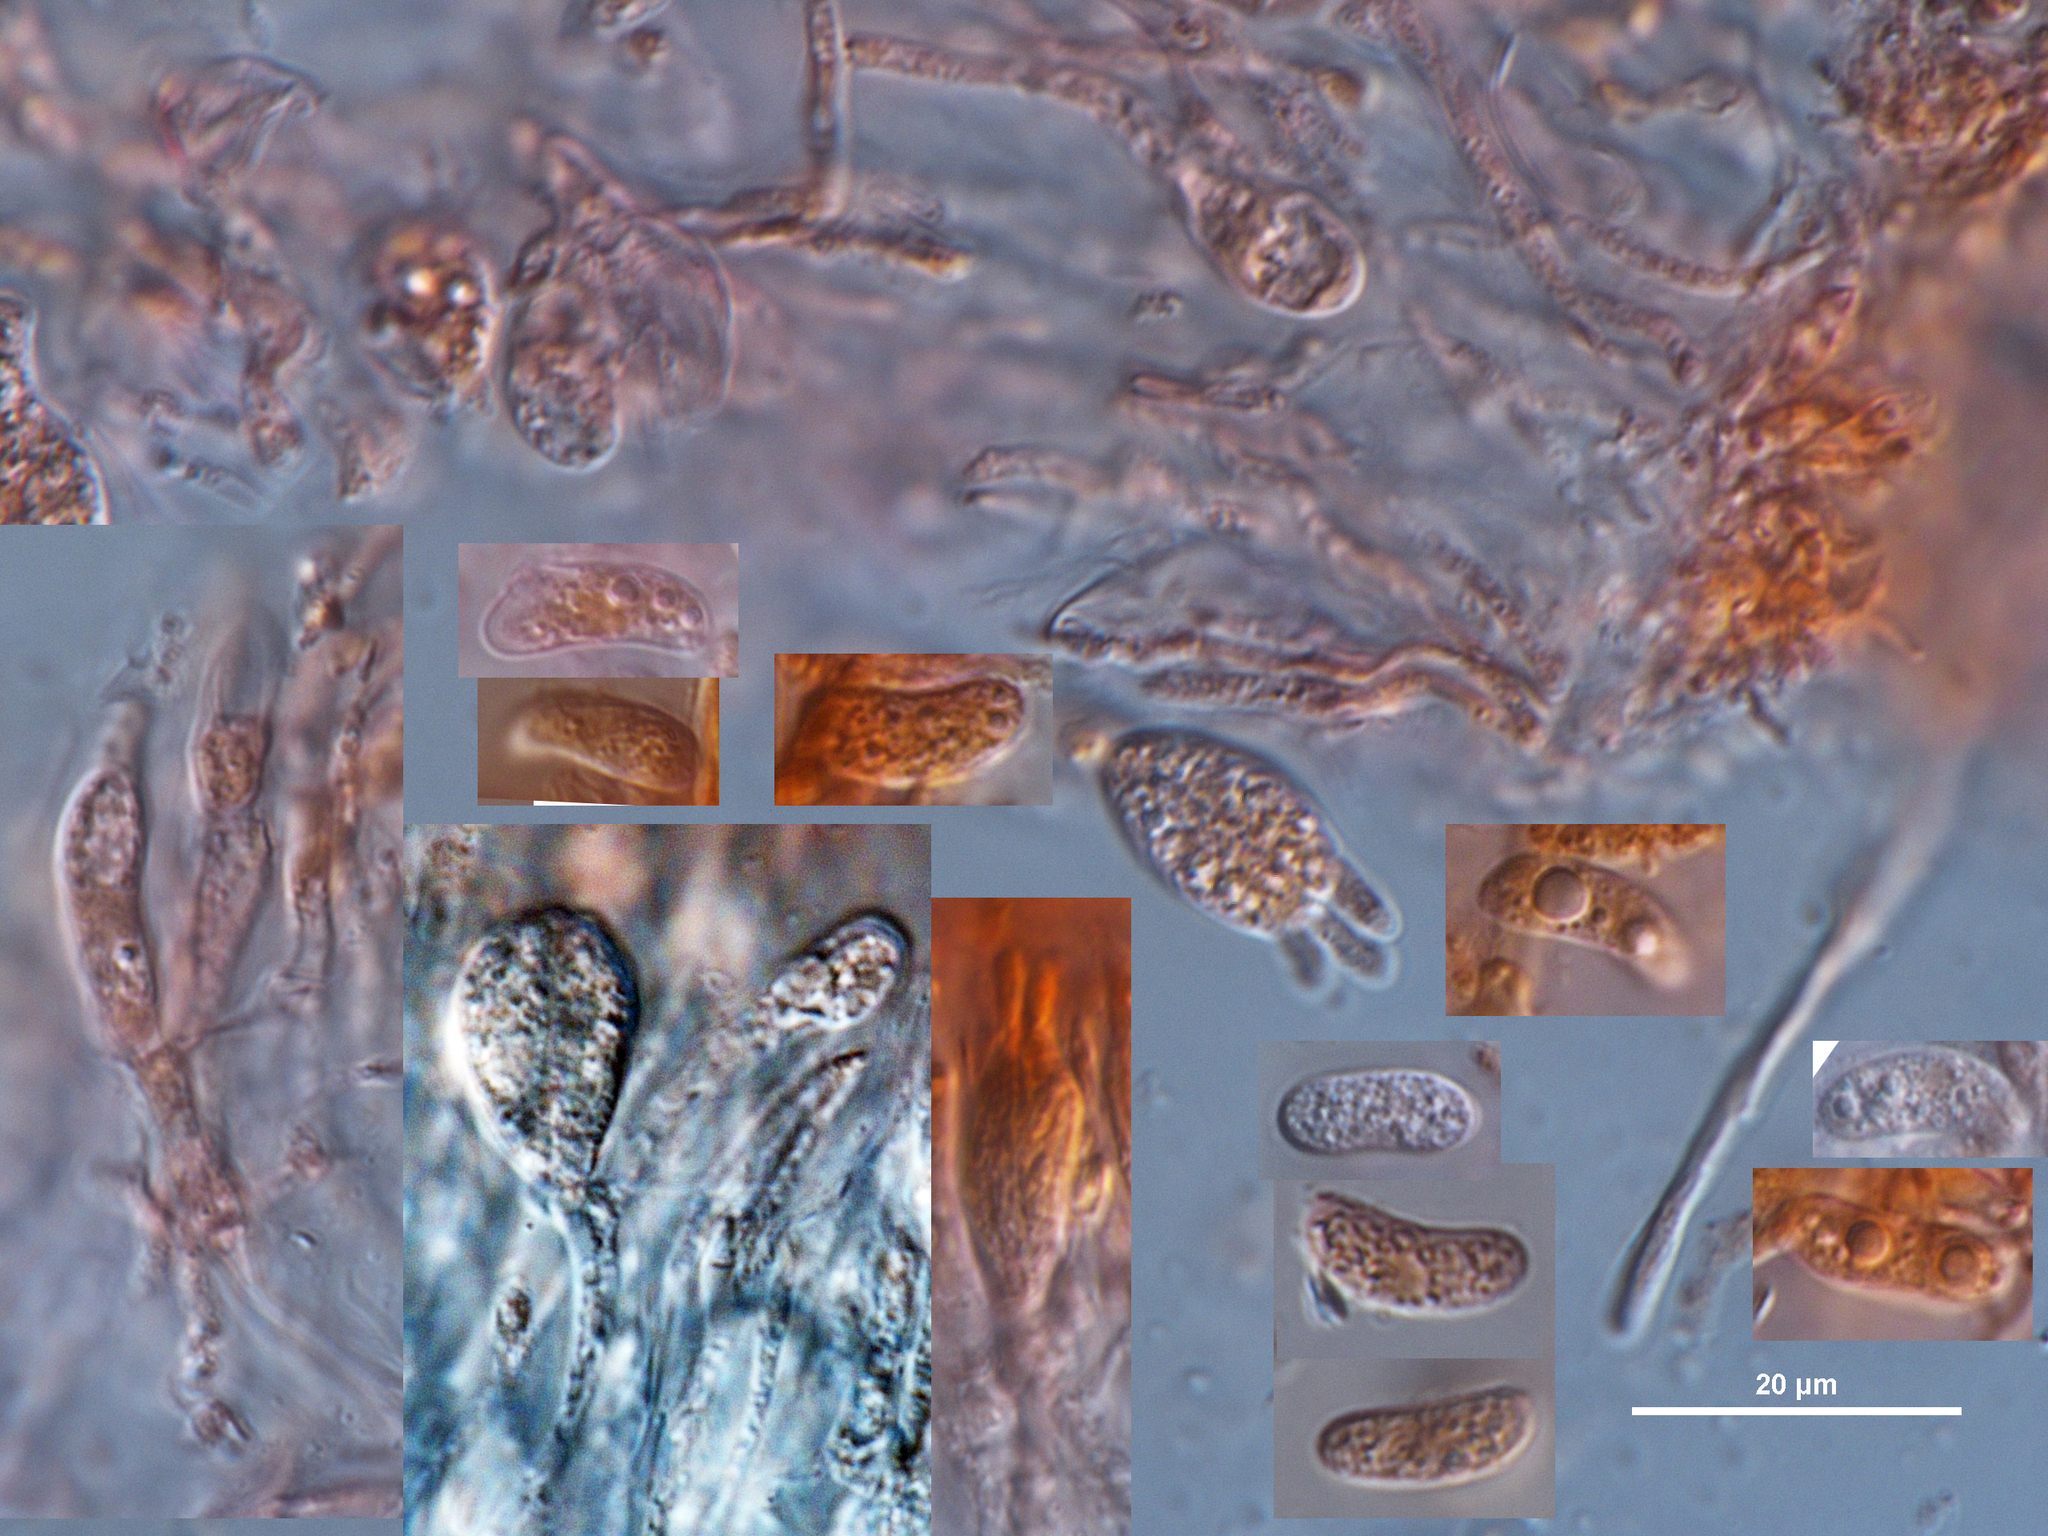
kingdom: Fungi
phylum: Basidiomycota
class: Agaricomycetes
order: Auriculariales
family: Auriculariaceae
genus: Exidia
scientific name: Exidia
